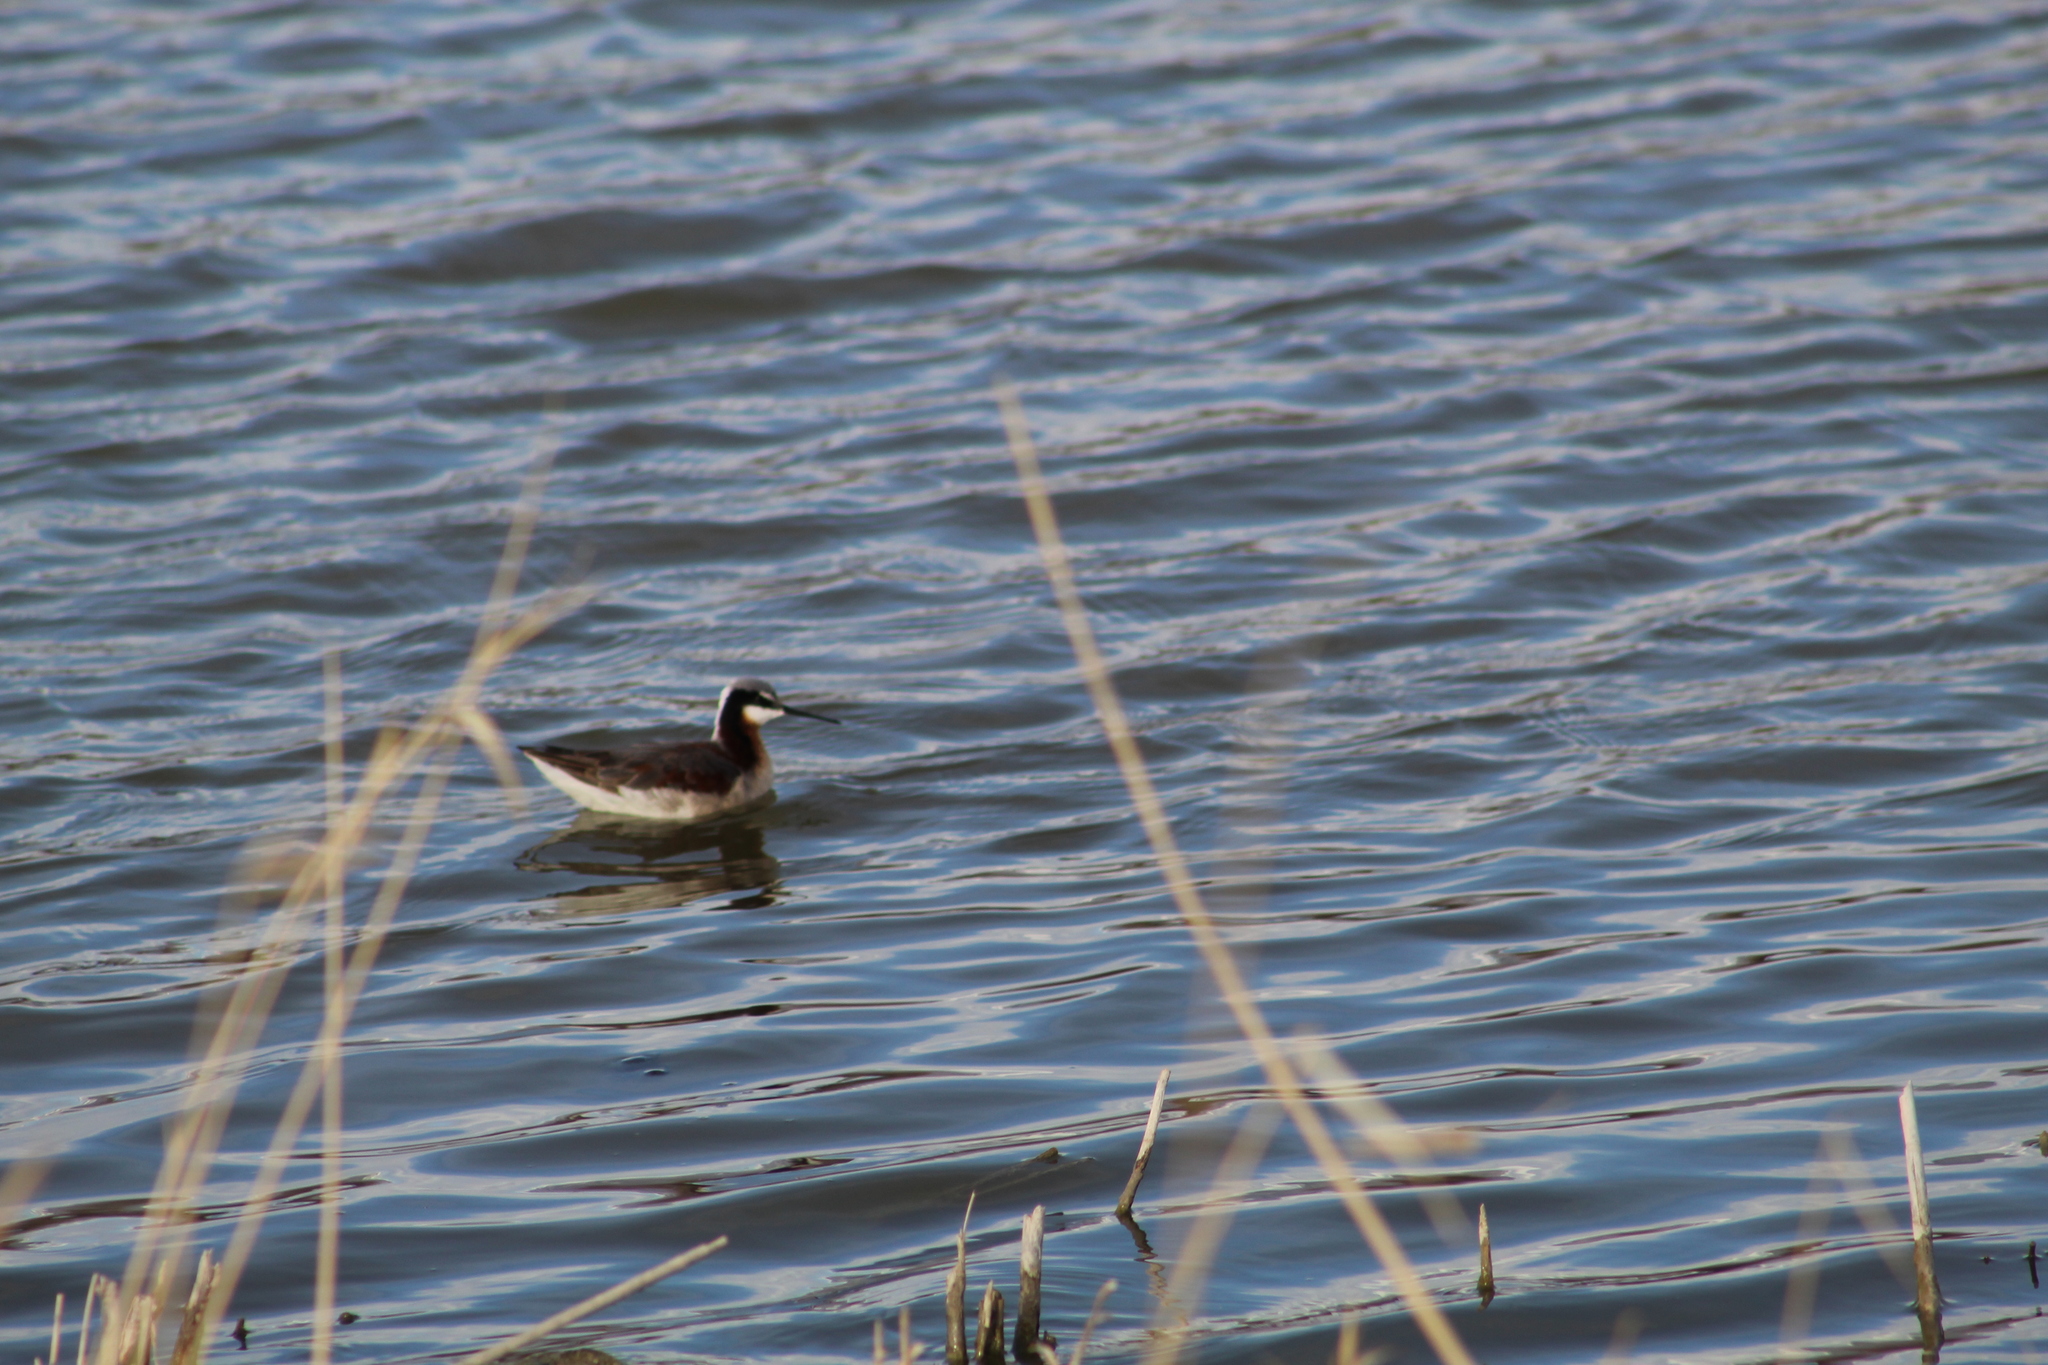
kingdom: Animalia
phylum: Chordata
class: Aves
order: Charadriiformes
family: Scolopacidae
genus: Phalaropus
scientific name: Phalaropus tricolor
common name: Wilson's phalarope
